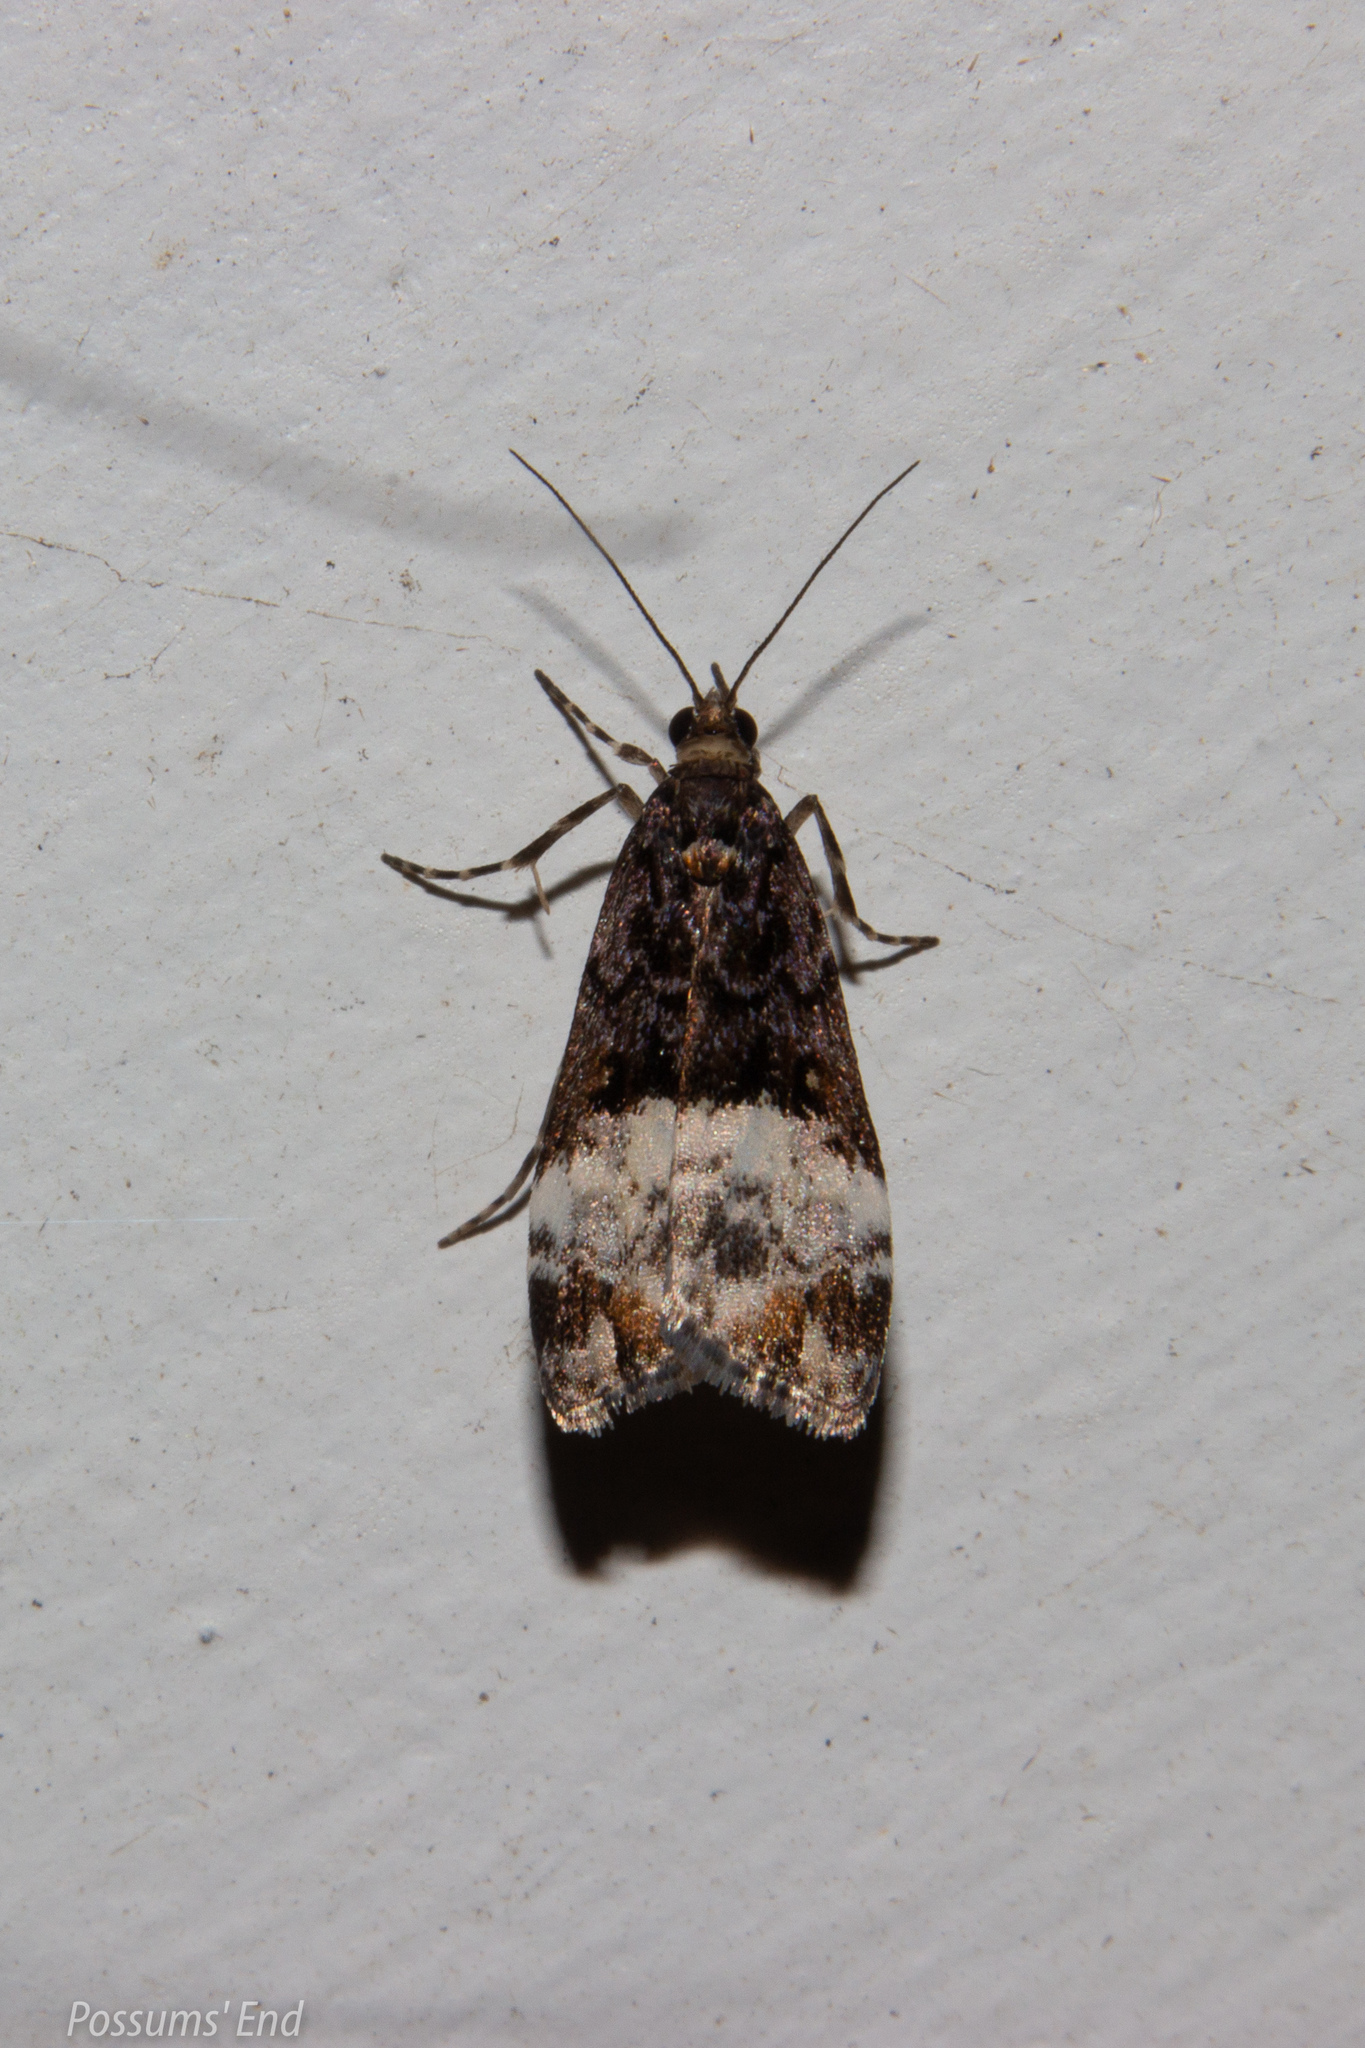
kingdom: Animalia
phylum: Arthropoda
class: Insecta
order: Lepidoptera
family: Crambidae
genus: Scoparia
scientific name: Scoparia minusculalis
